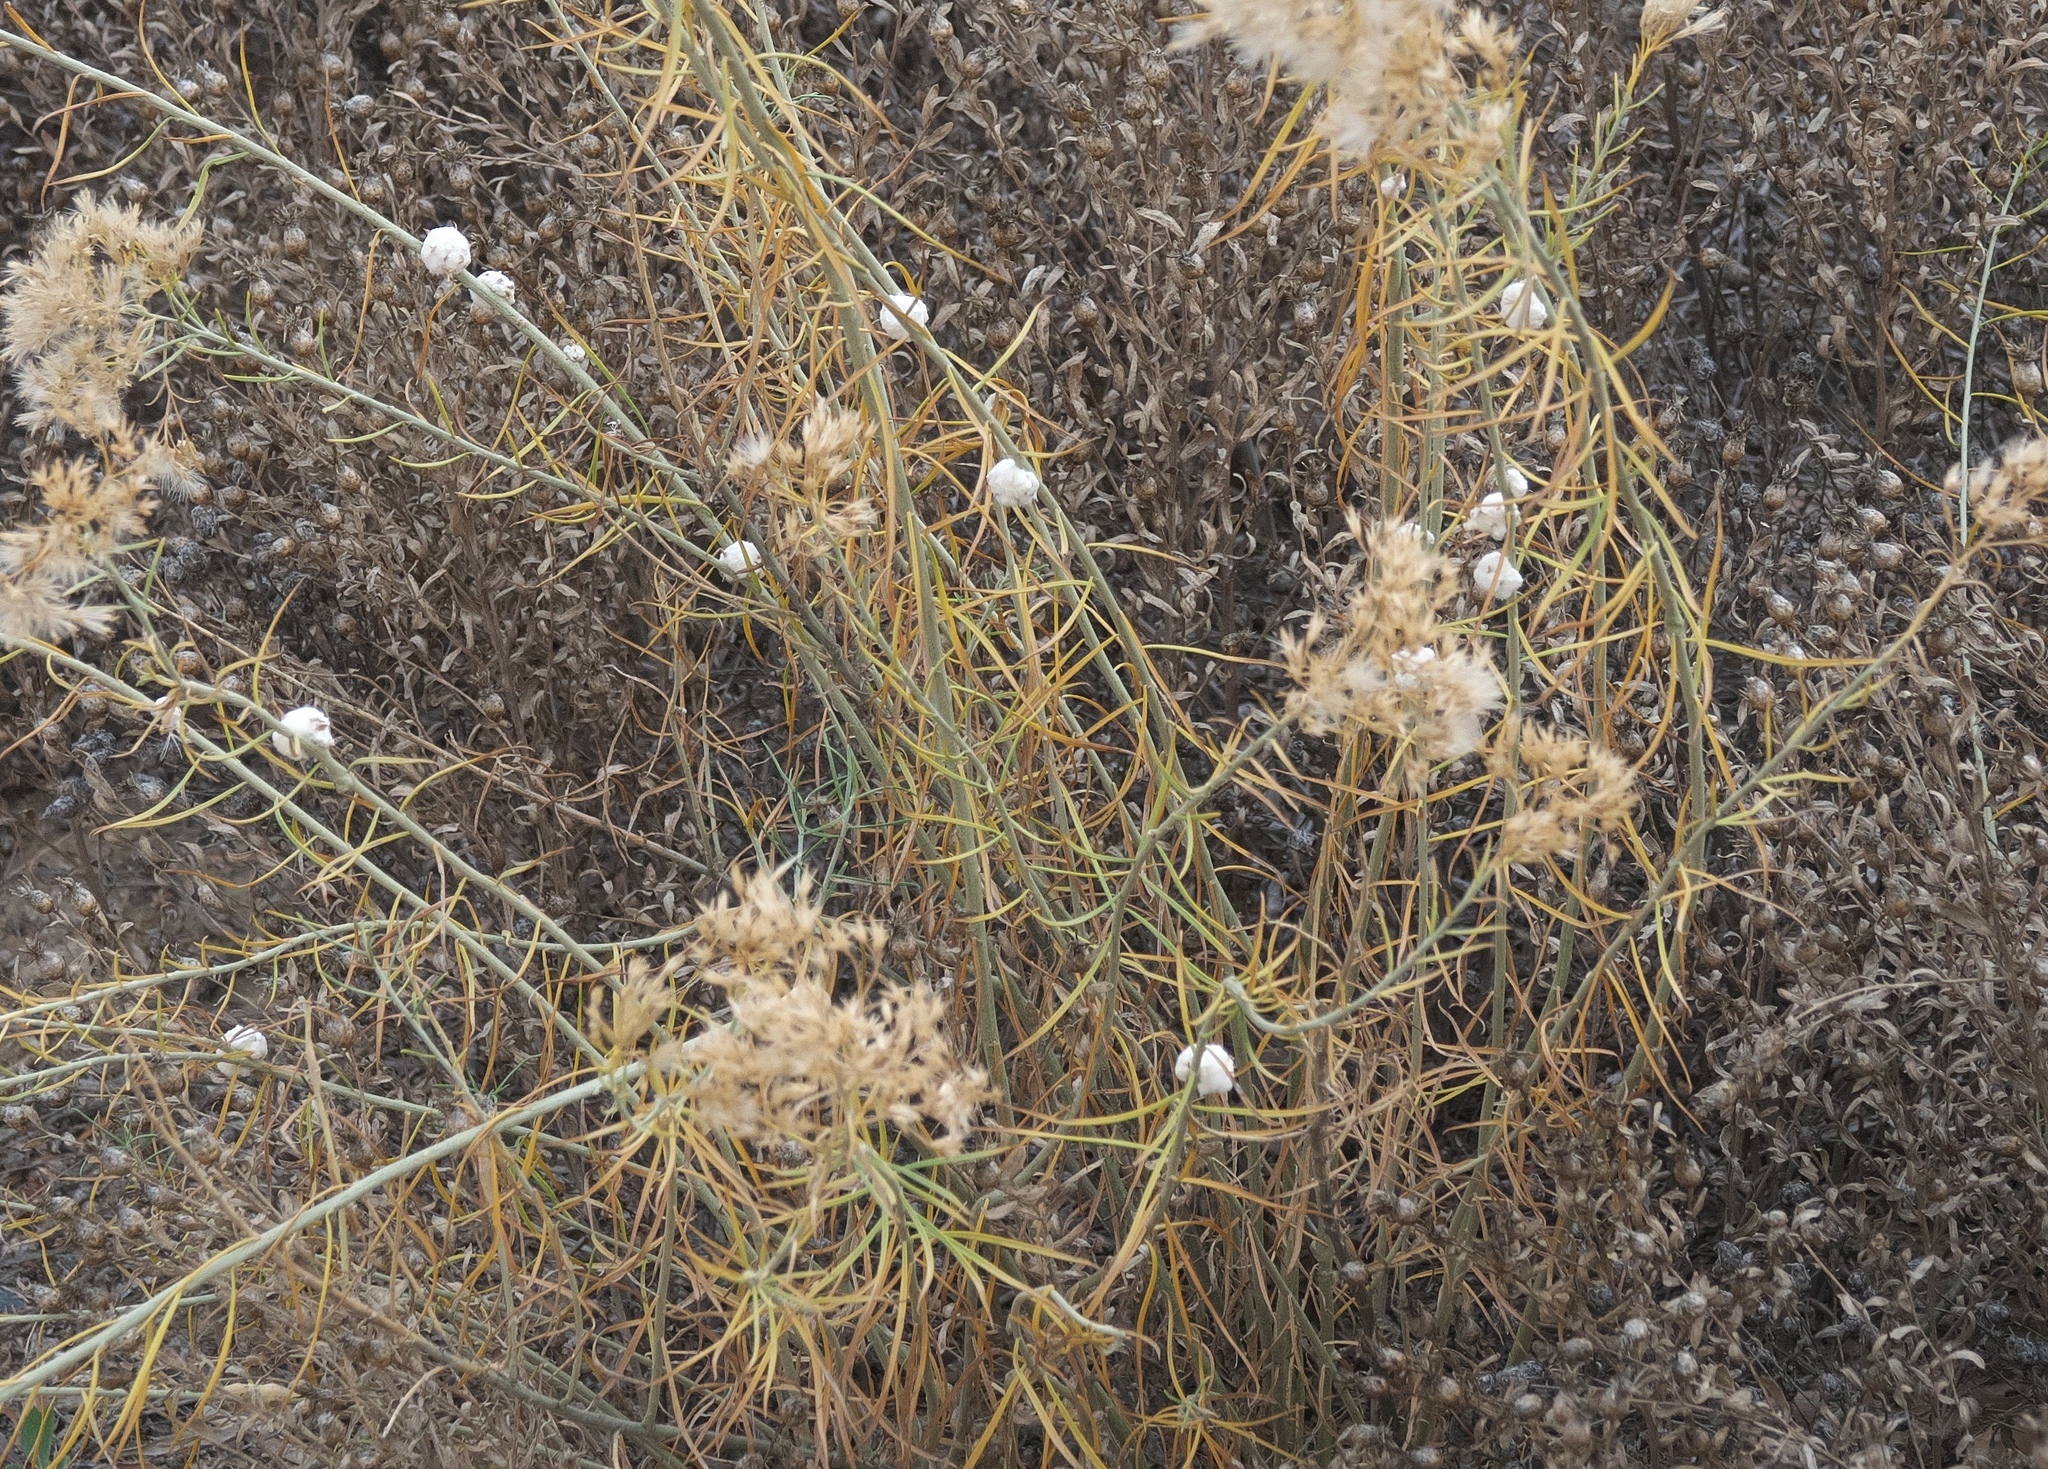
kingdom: Animalia
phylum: Arthropoda
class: Insecta
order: Diptera
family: Tephritidae
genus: Aciurina
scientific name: Aciurina bigeloviae
